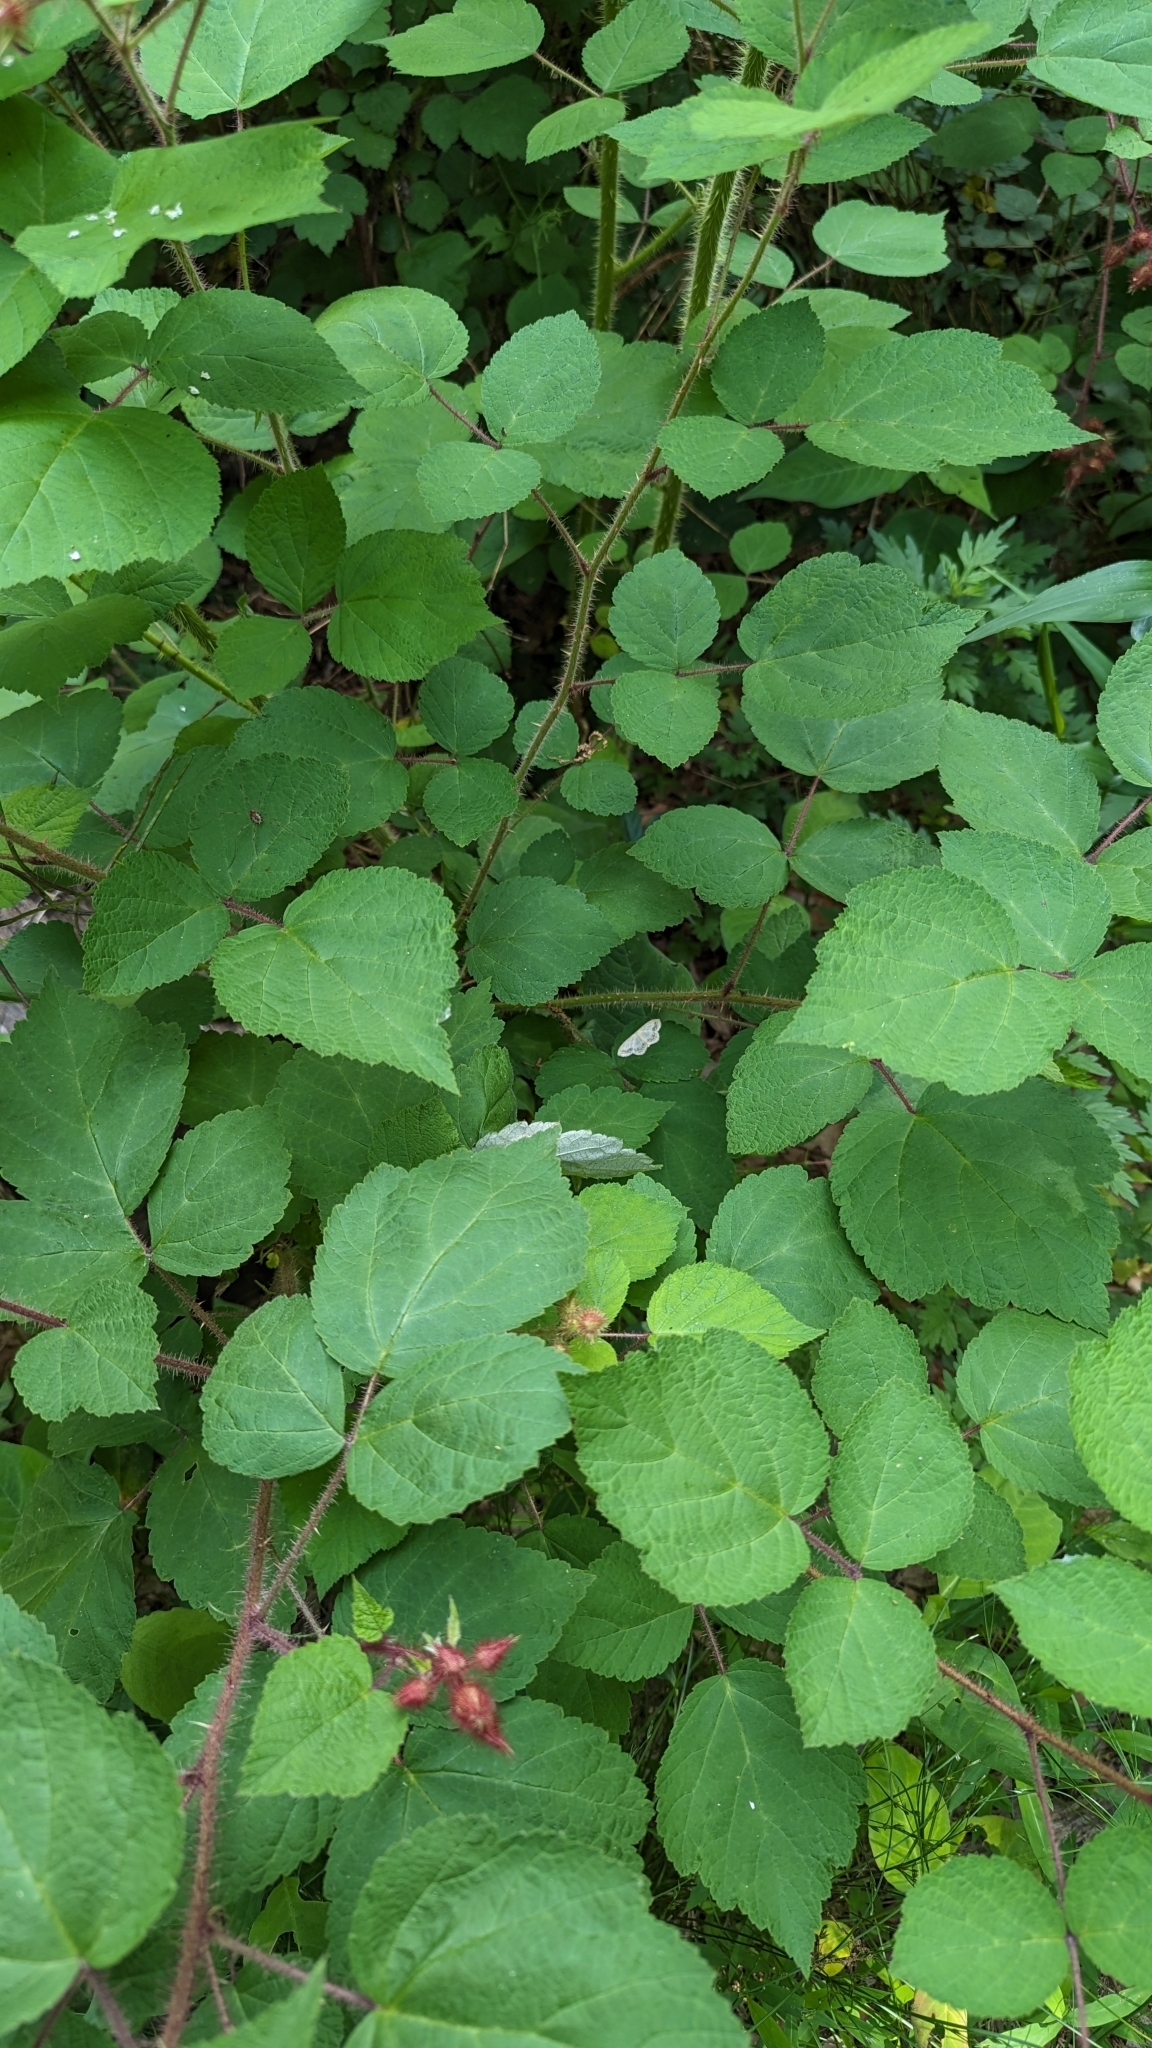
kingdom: Animalia
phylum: Arthropoda
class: Insecta
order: Lepidoptera
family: Geometridae
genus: Scopula
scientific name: Scopula limboundata
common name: Large lace border
